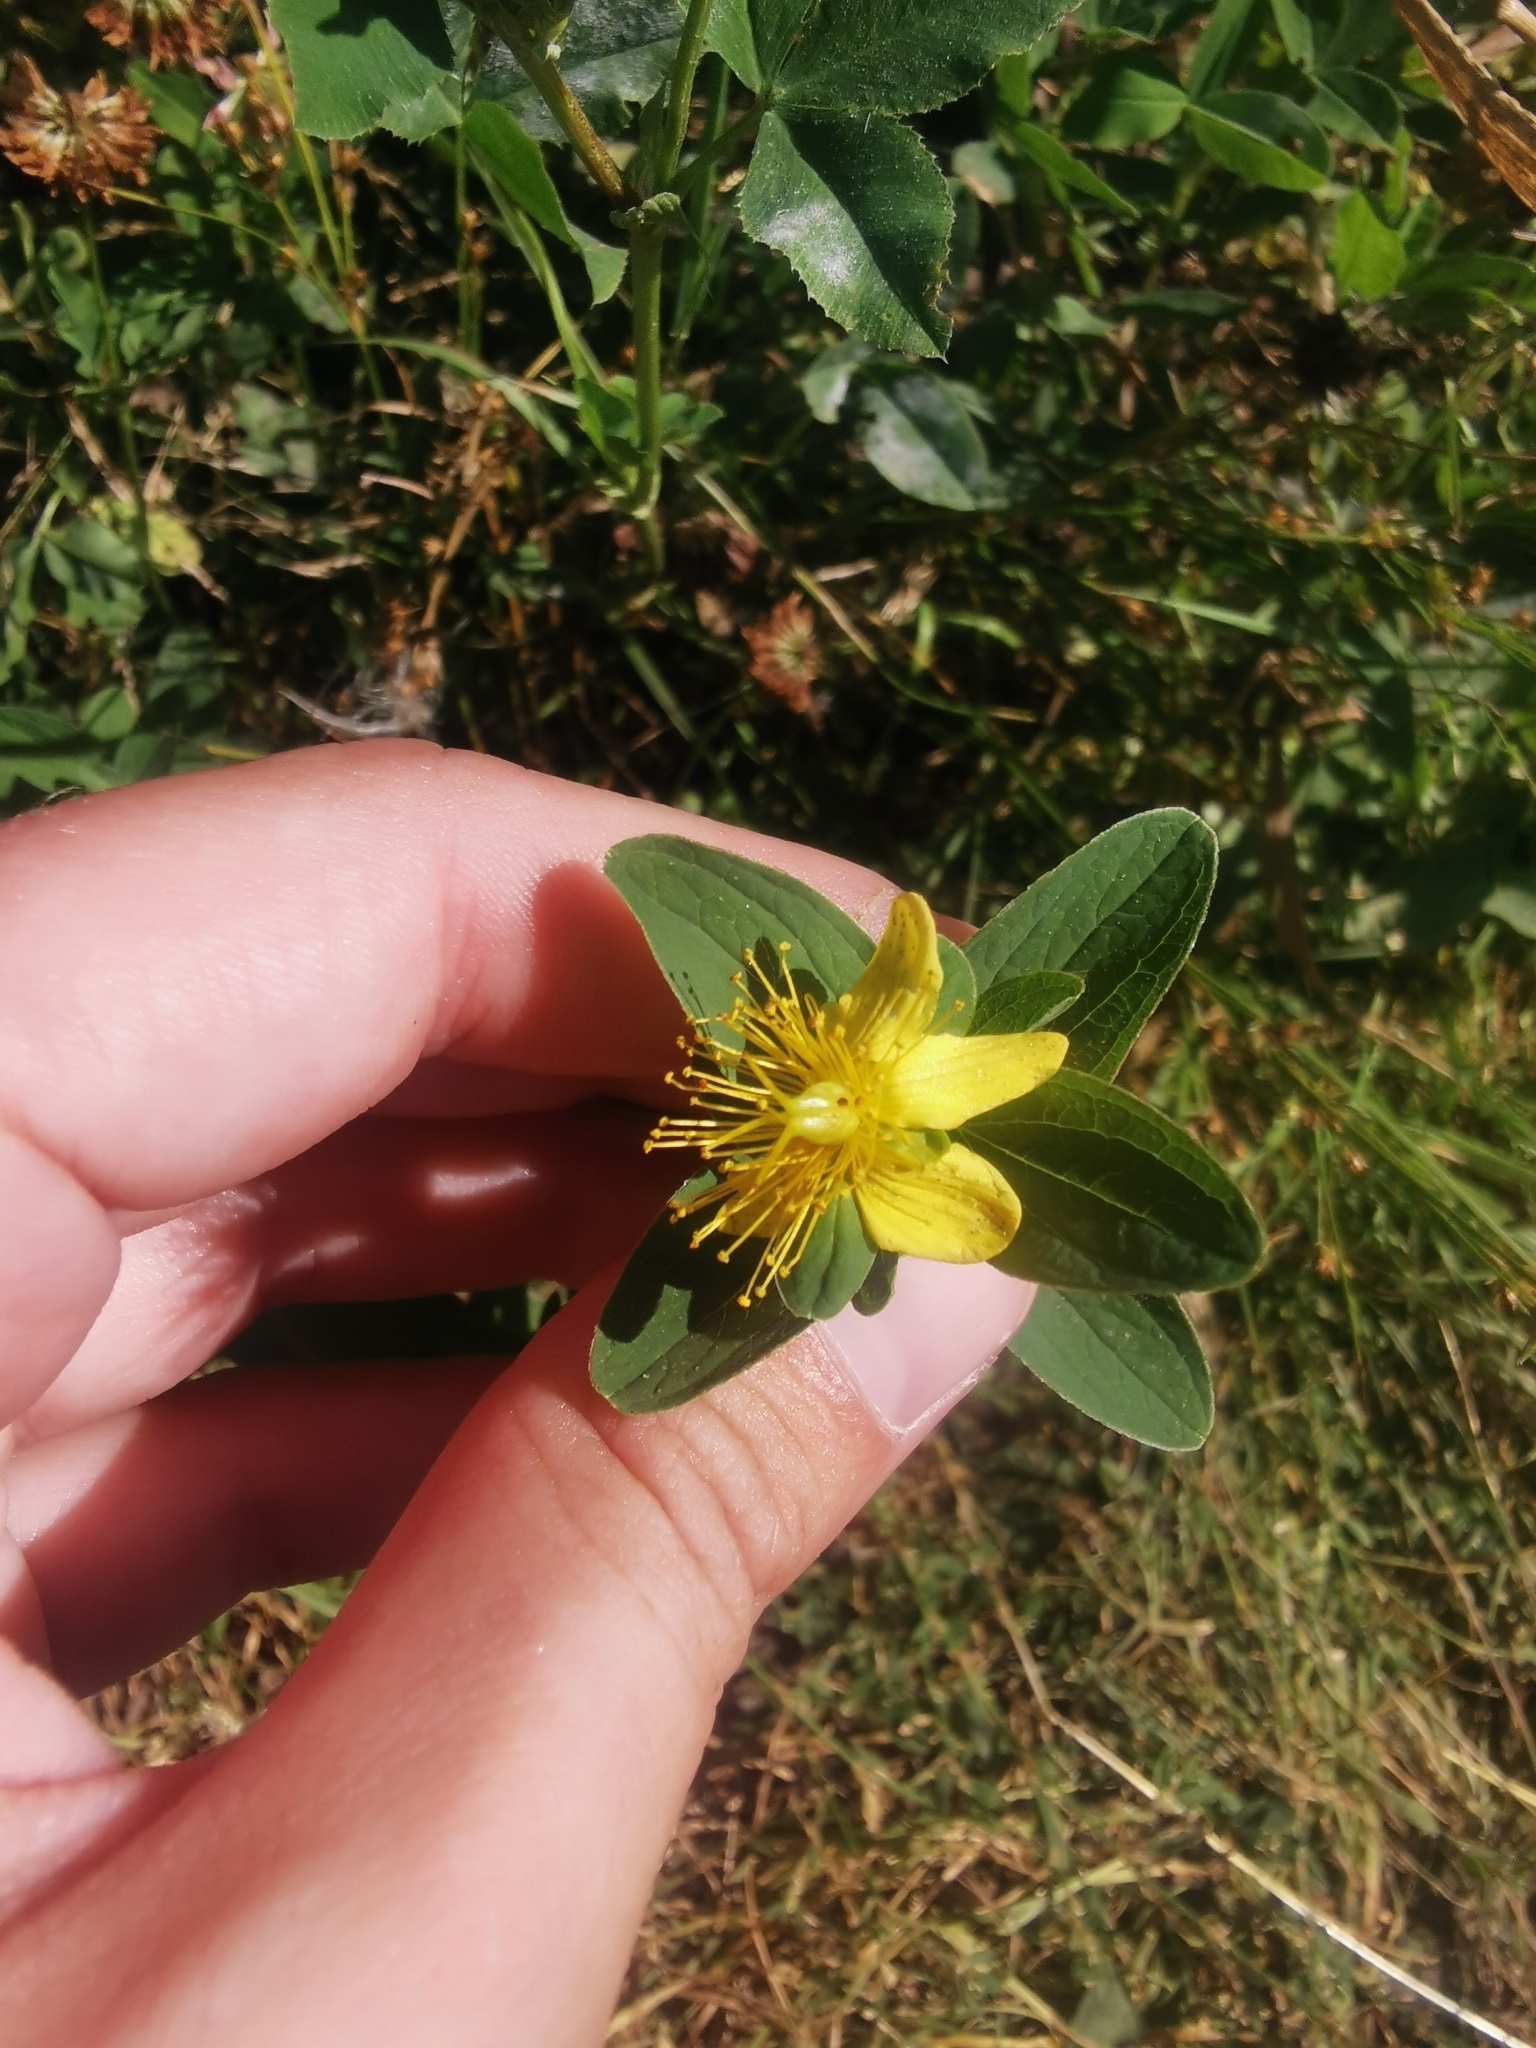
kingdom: Plantae
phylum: Tracheophyta
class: Magnoliopsida
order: Malpighiales
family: Hypericaceae
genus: Hypericum
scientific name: Hypericum maculatum
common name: Imperforate st. john's-wort
